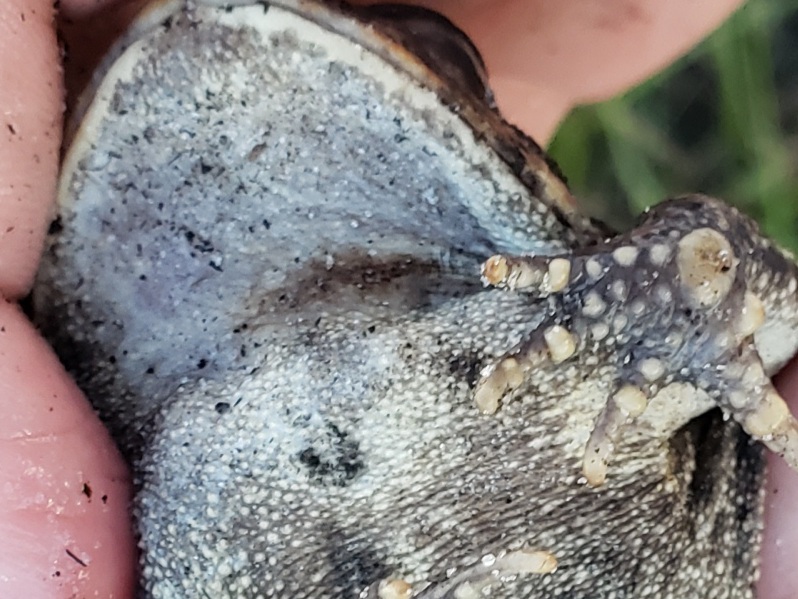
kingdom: Animalia
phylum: Chordata
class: Amphibia
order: Anura
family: Bufonidae
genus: Anaxyrus
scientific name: Anaxyrus terrestris
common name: Southern toad
